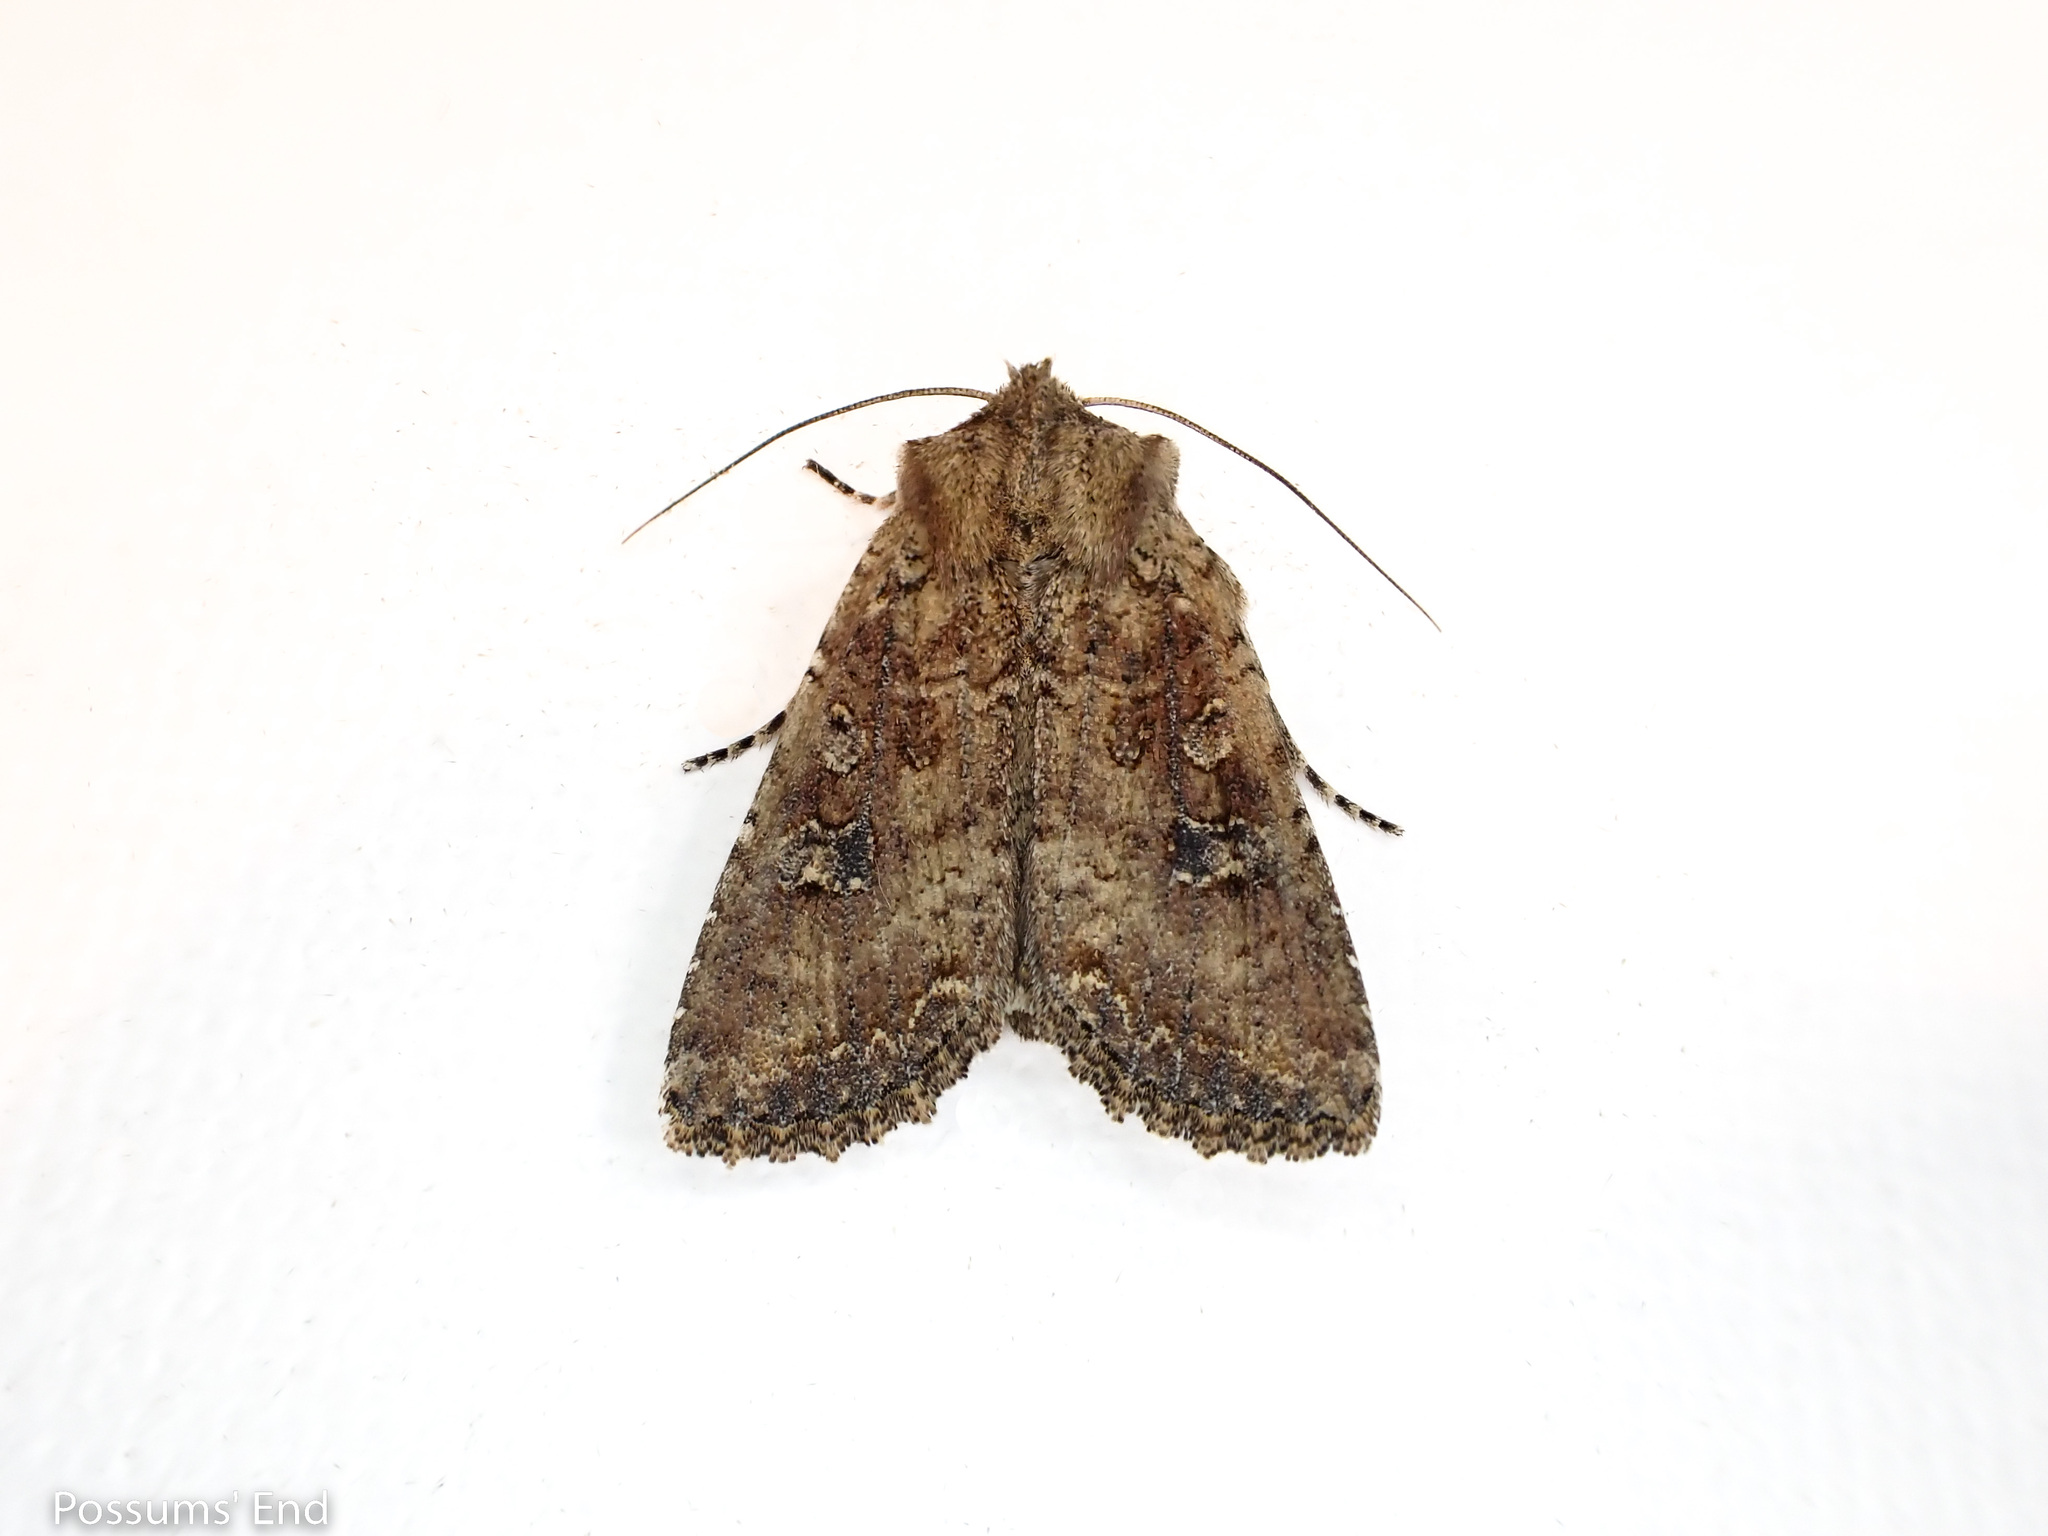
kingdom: Animalia
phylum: Arthropoda
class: Insecta
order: Lepidoptera
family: Noctuidae
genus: Ichneutica
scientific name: Ichneutica morosa
